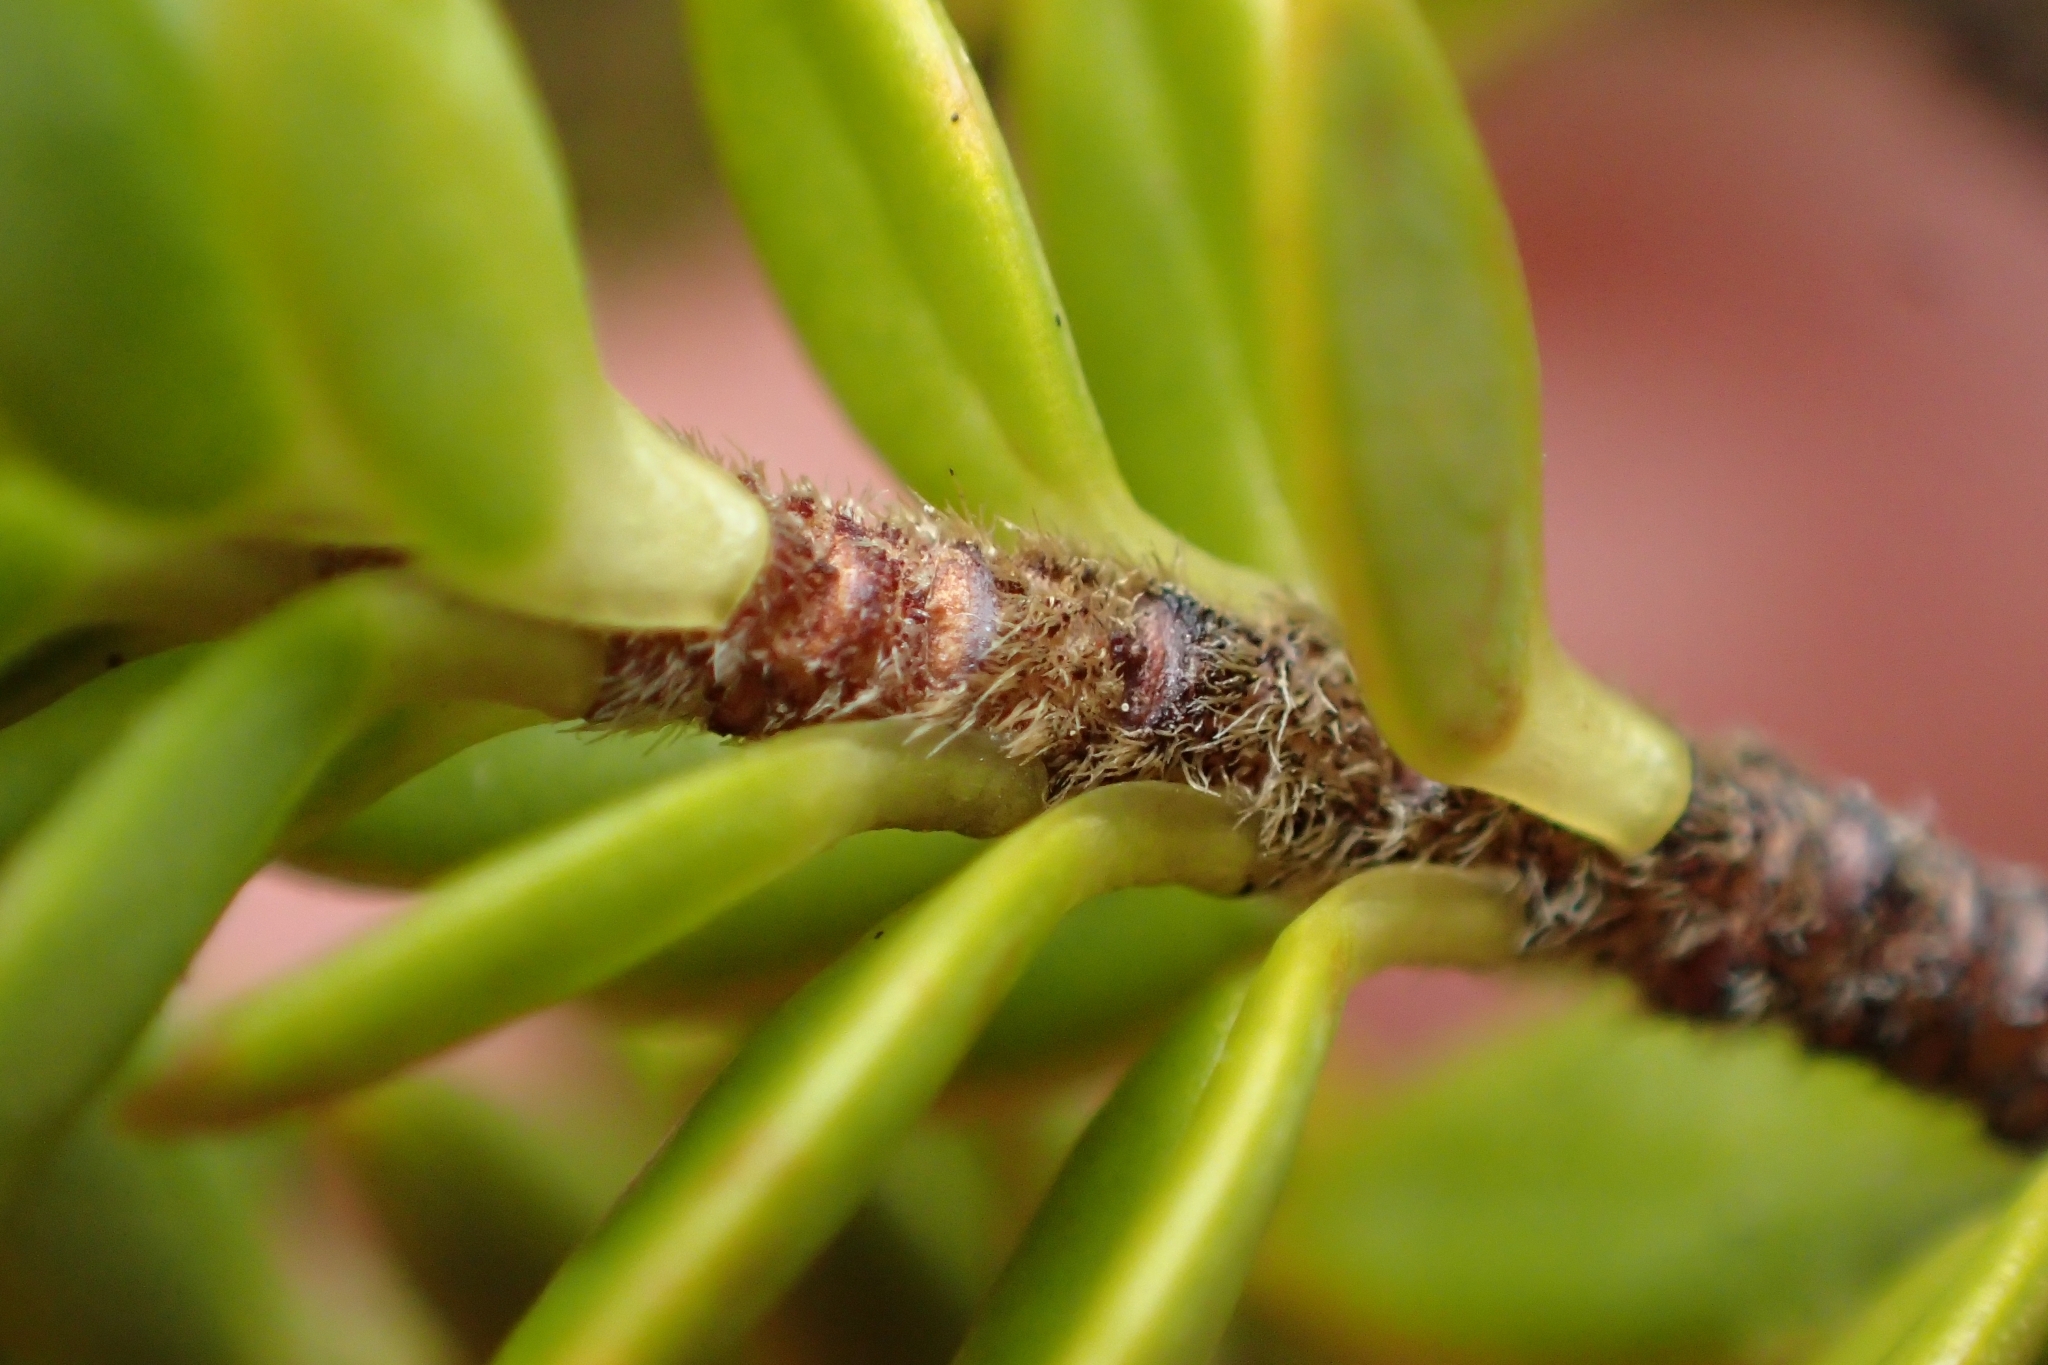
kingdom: Plantae
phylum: Tracheophyta
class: Magnoliopsida
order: Malvales
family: Thymelaeaceae
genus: Pimelea
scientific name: Pimelea buxifolia
